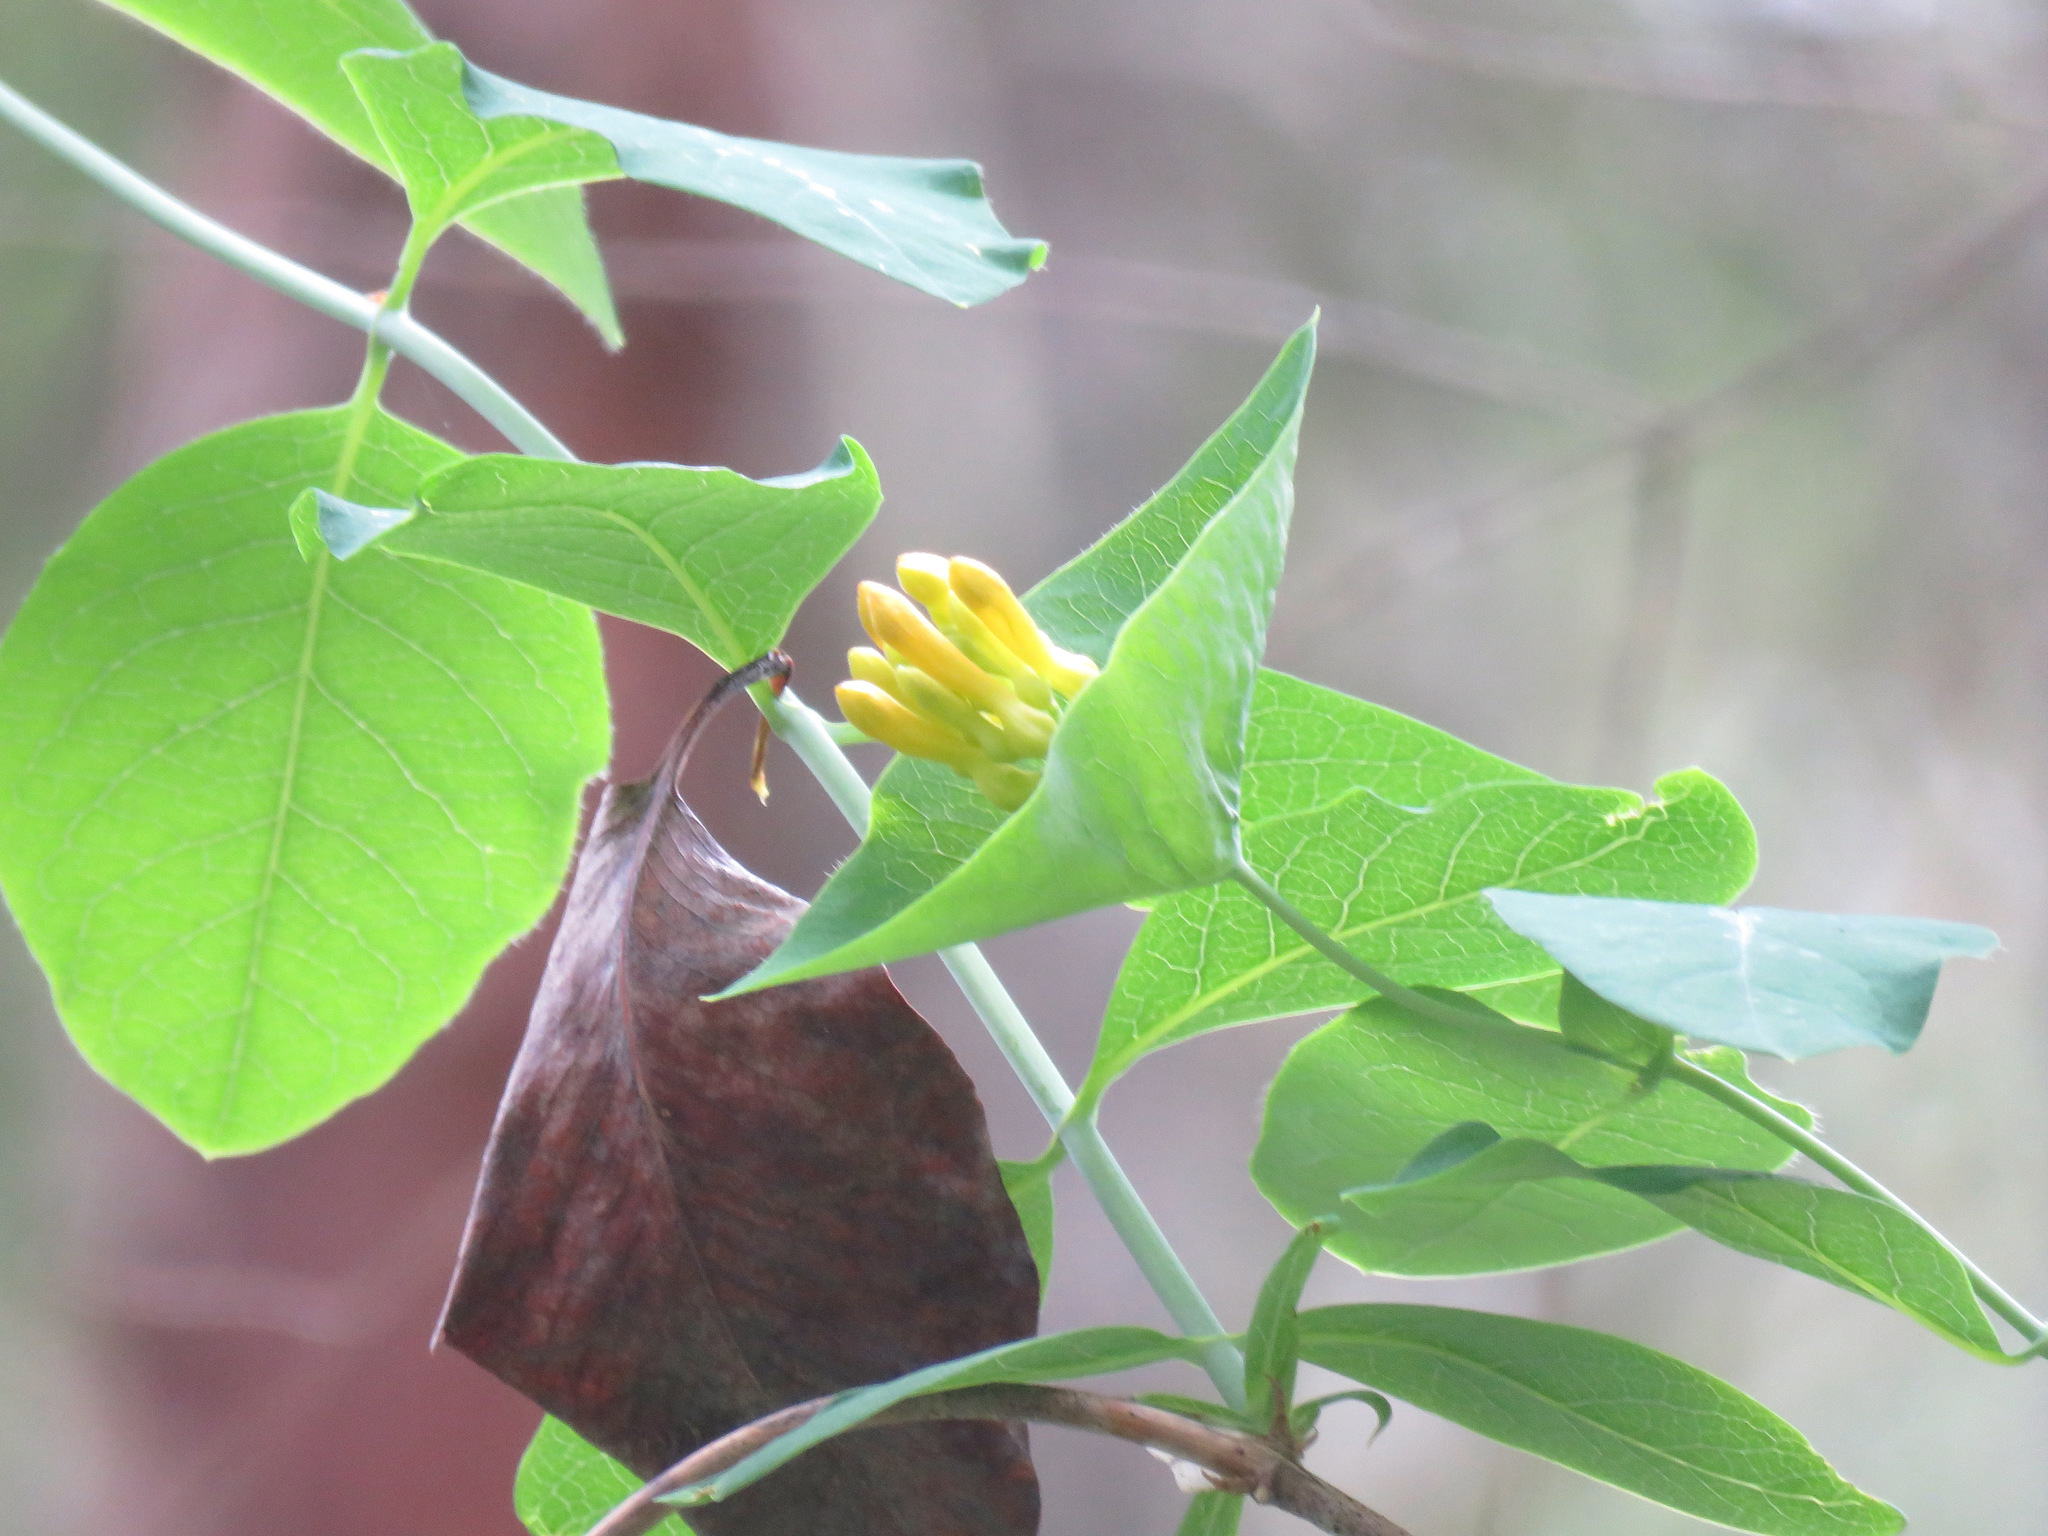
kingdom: Plantae
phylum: Tracheophyta
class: Magnoliopsida
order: Dipsacales
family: Caprifoliaceae
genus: Lonicera
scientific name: Lonicera ciliosa
